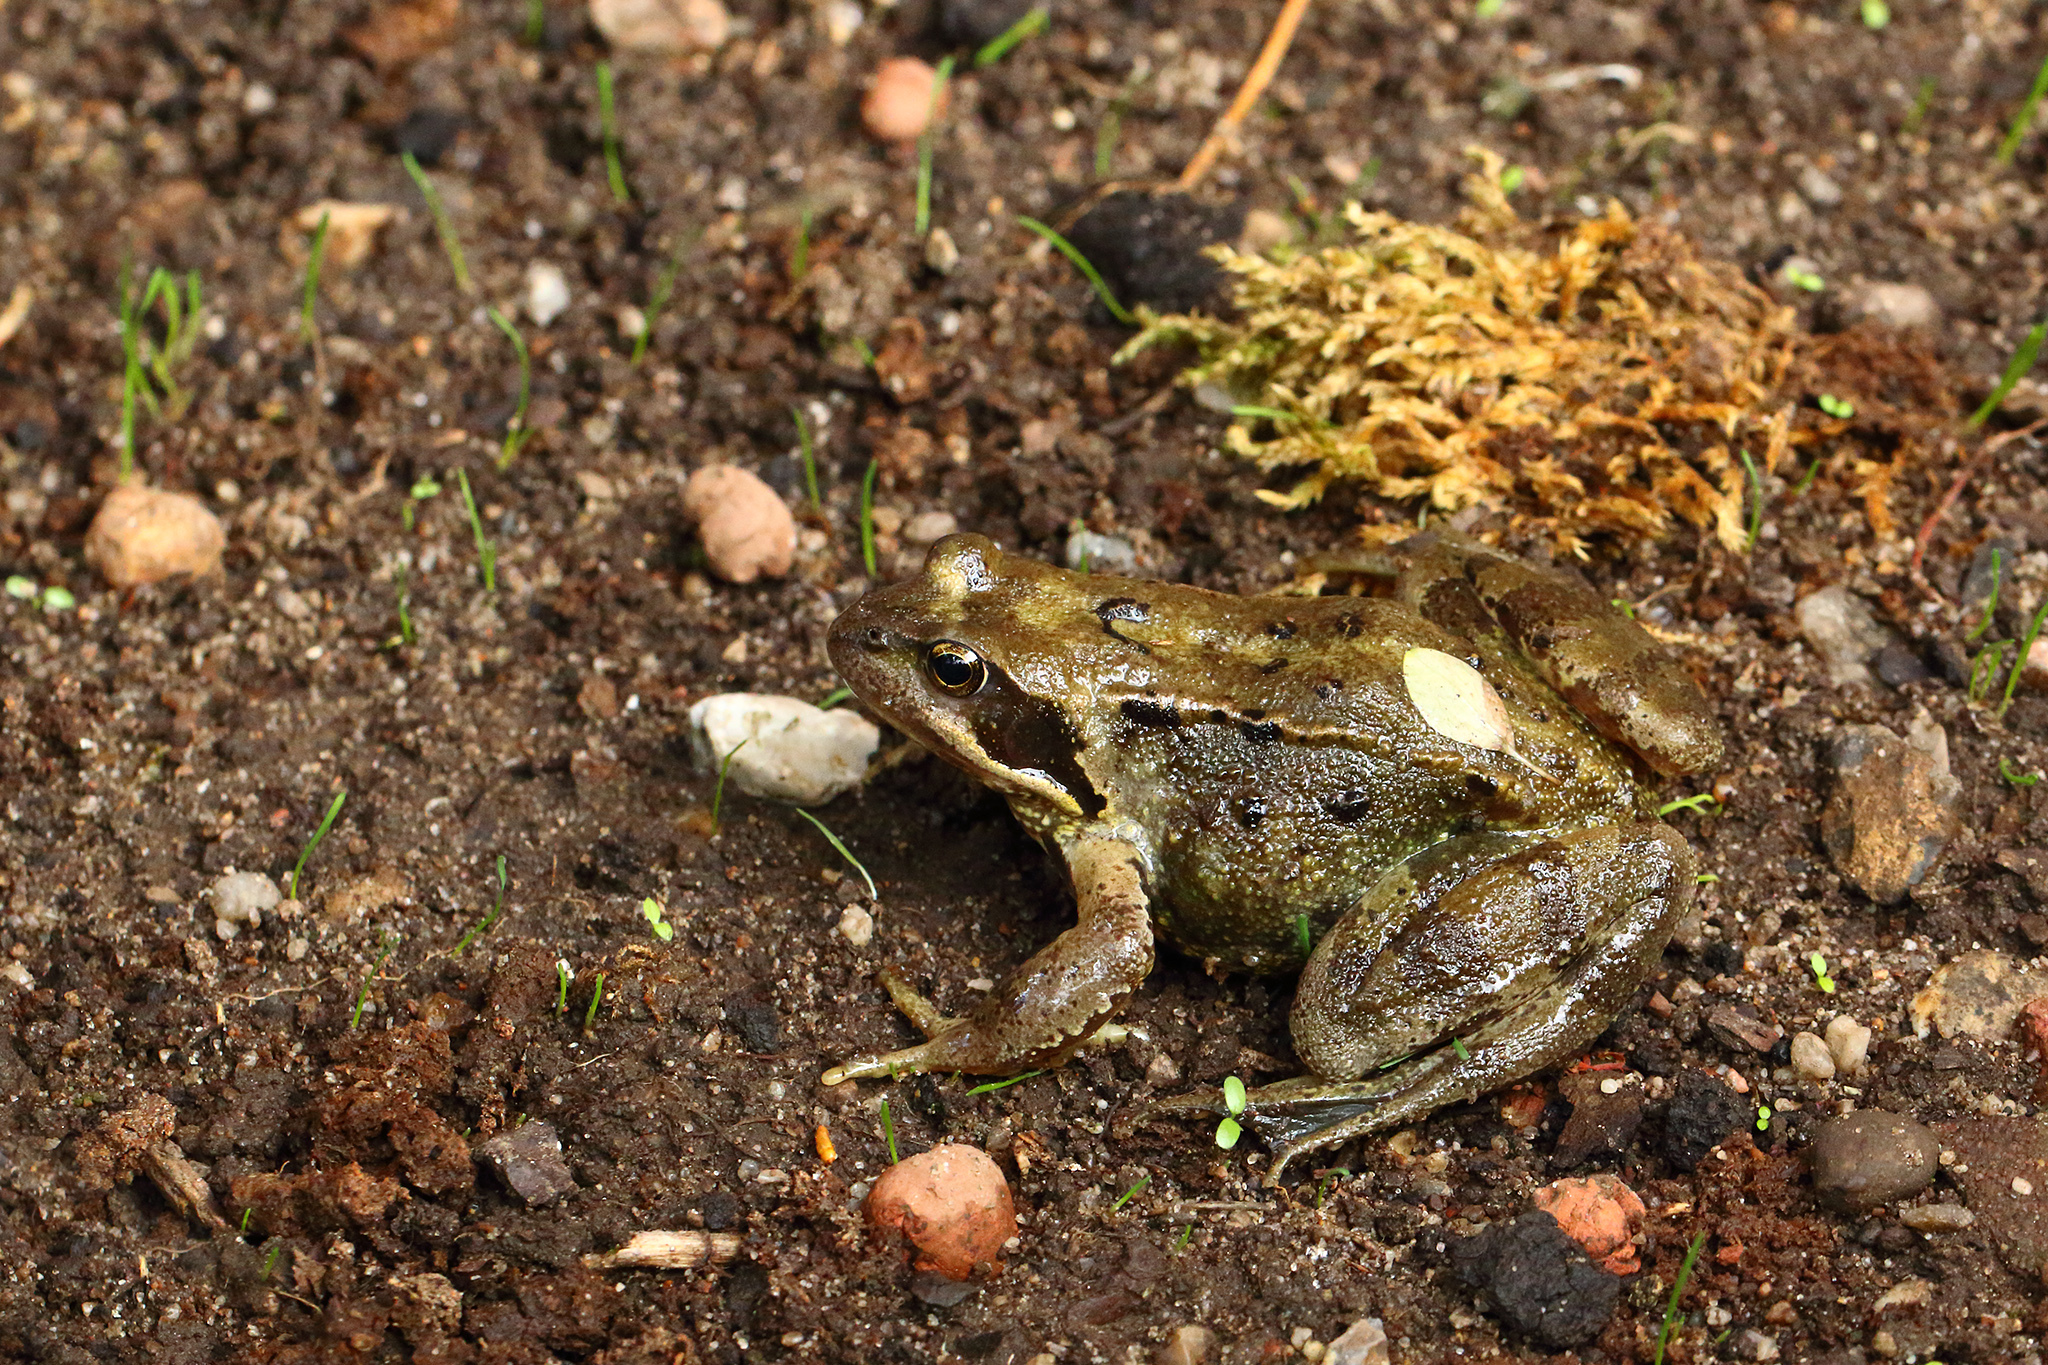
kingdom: Animalia
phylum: Chordata
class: Amphibia
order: Anura
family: Ranidae
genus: Rana
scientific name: Rana temporaria
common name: Common frog
